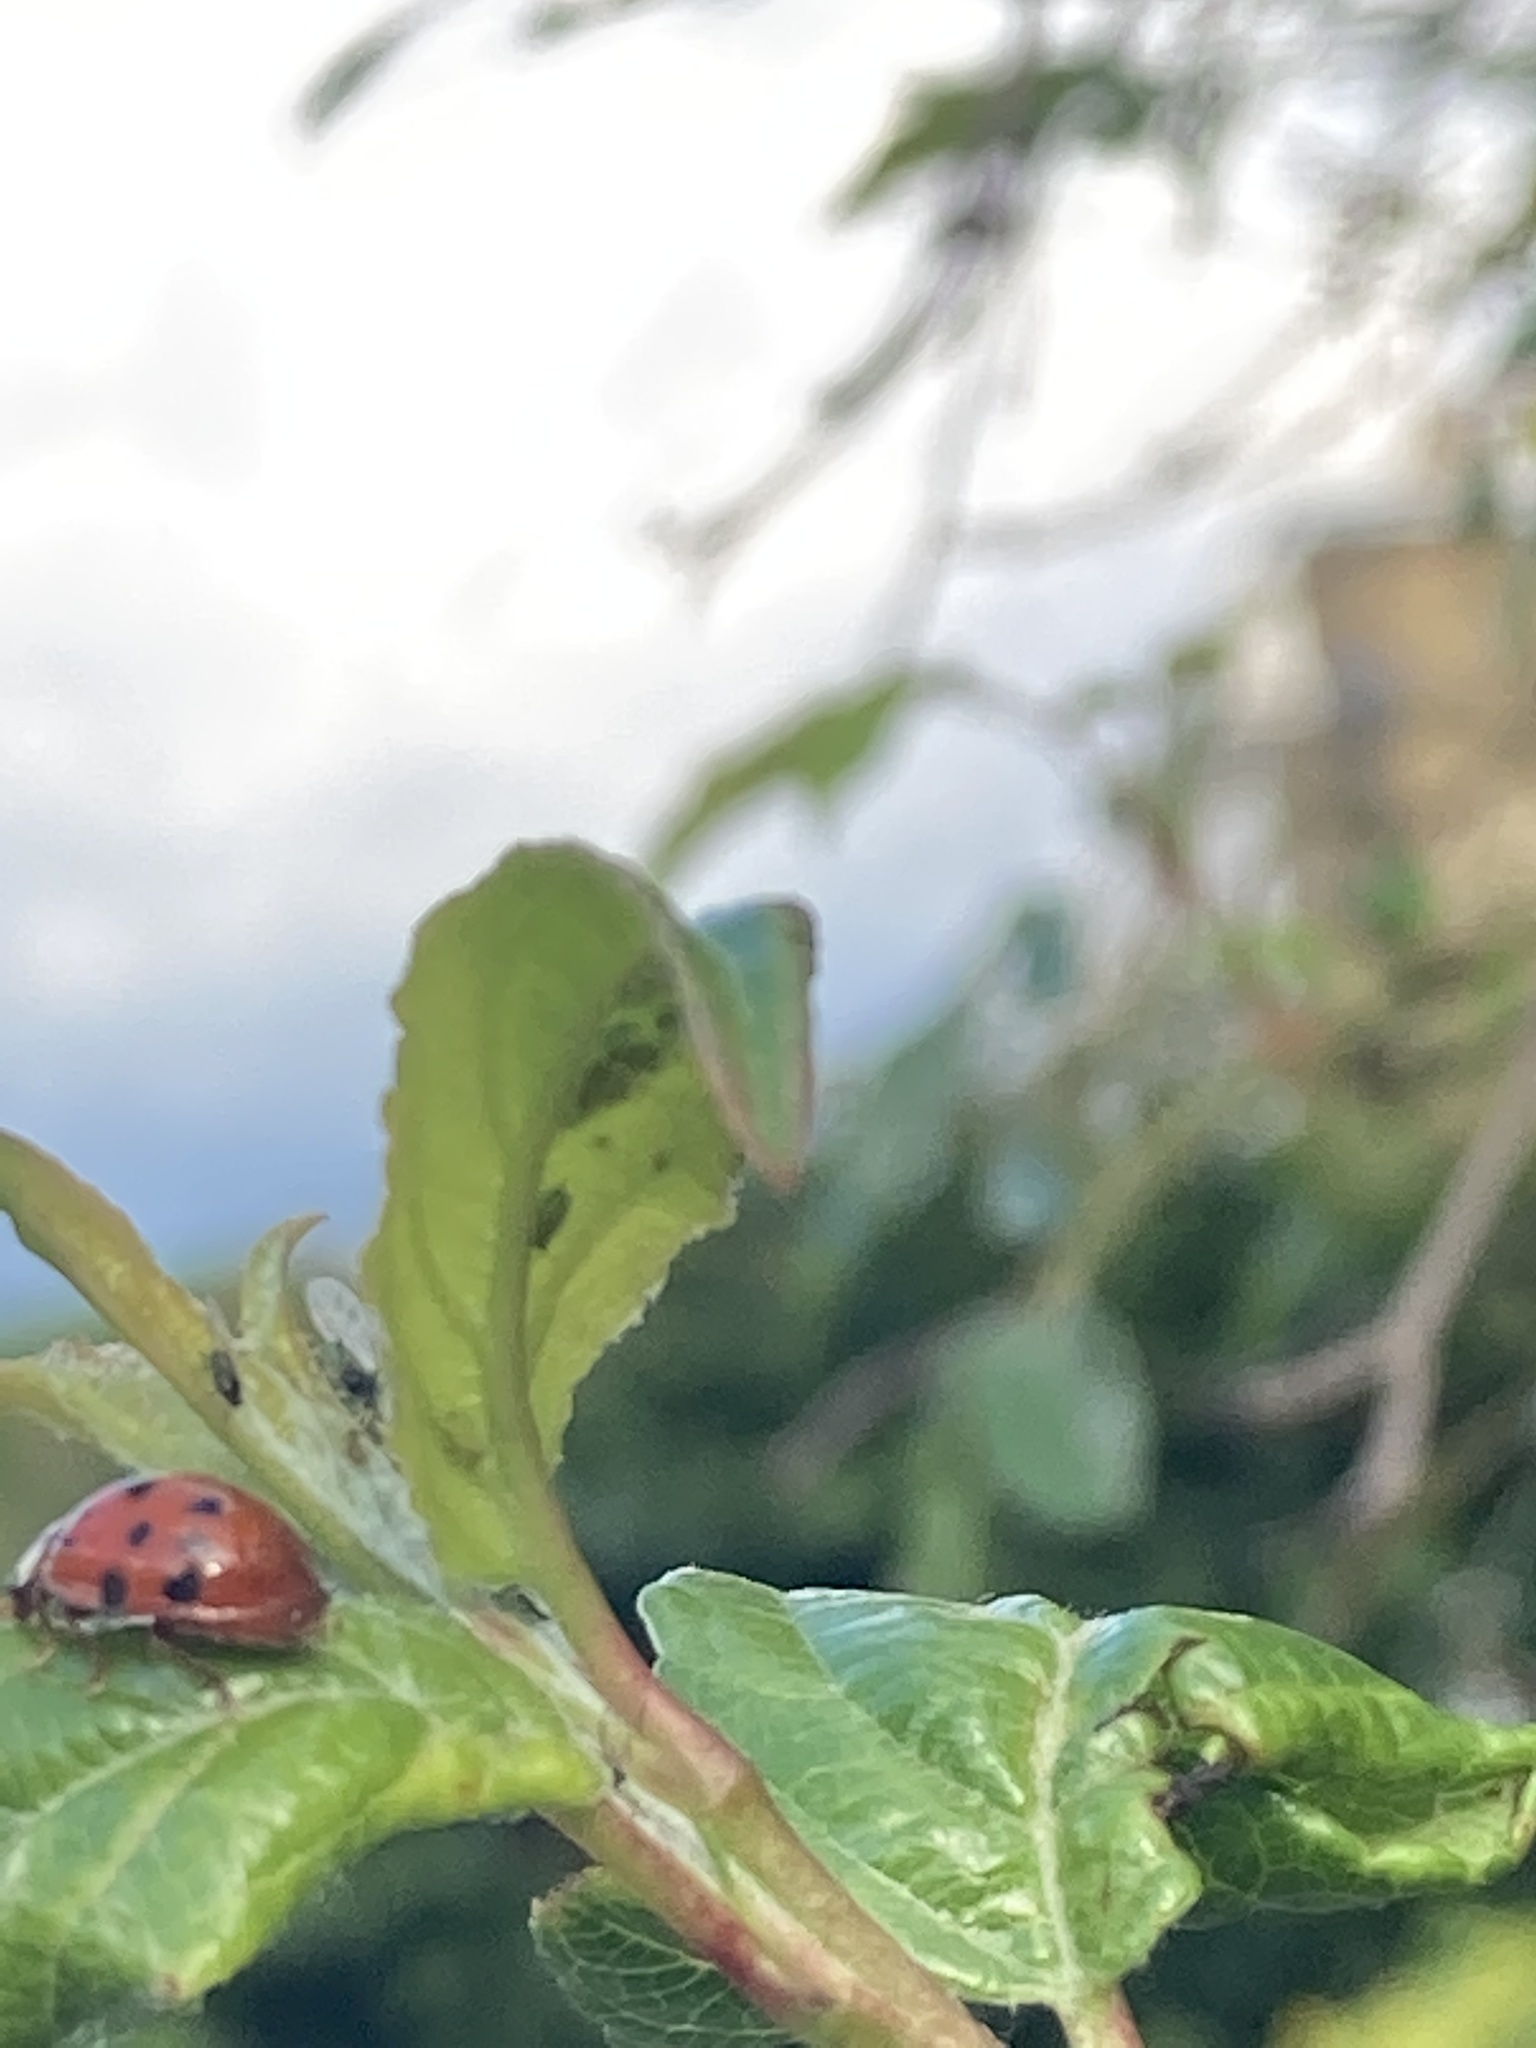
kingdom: Animalia
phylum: Arthropoda
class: Insecta
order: Coleoptera
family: Coccinellidae
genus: Harmonia
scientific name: Harmonia axyridis
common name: Harlequin ladybird
